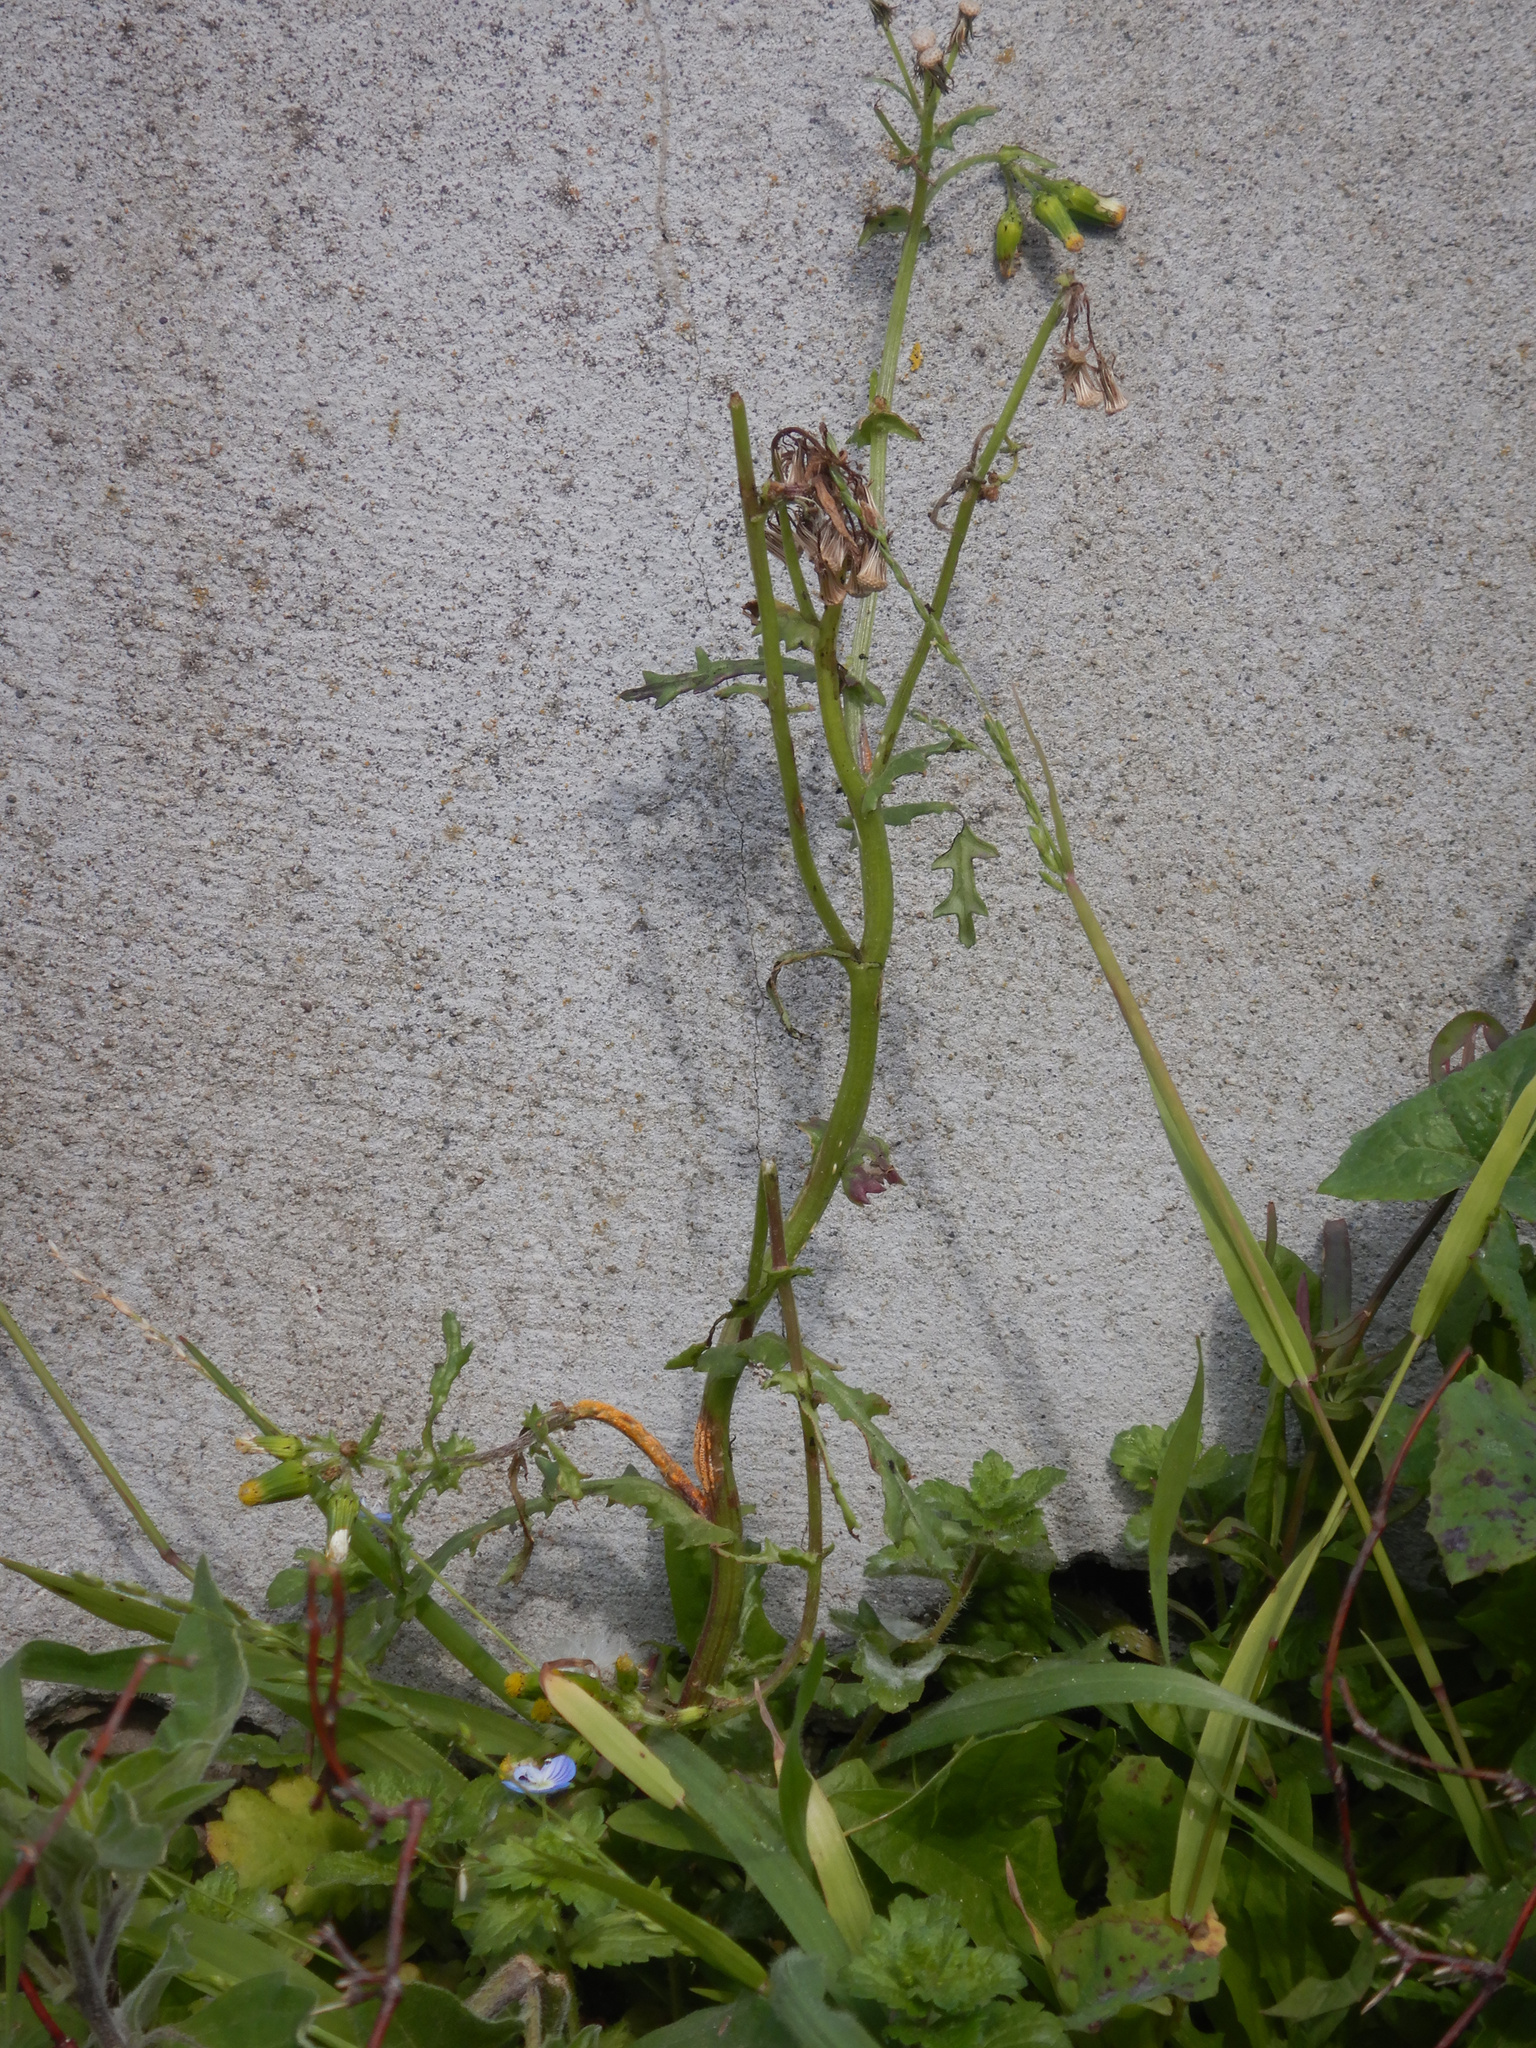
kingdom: Plantae
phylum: Tracheophyta
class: Magnoliopsida
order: Asterales
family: Asteraceae
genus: Senecio
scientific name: Senecio vulgaris
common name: Old-man-in-the-spring
